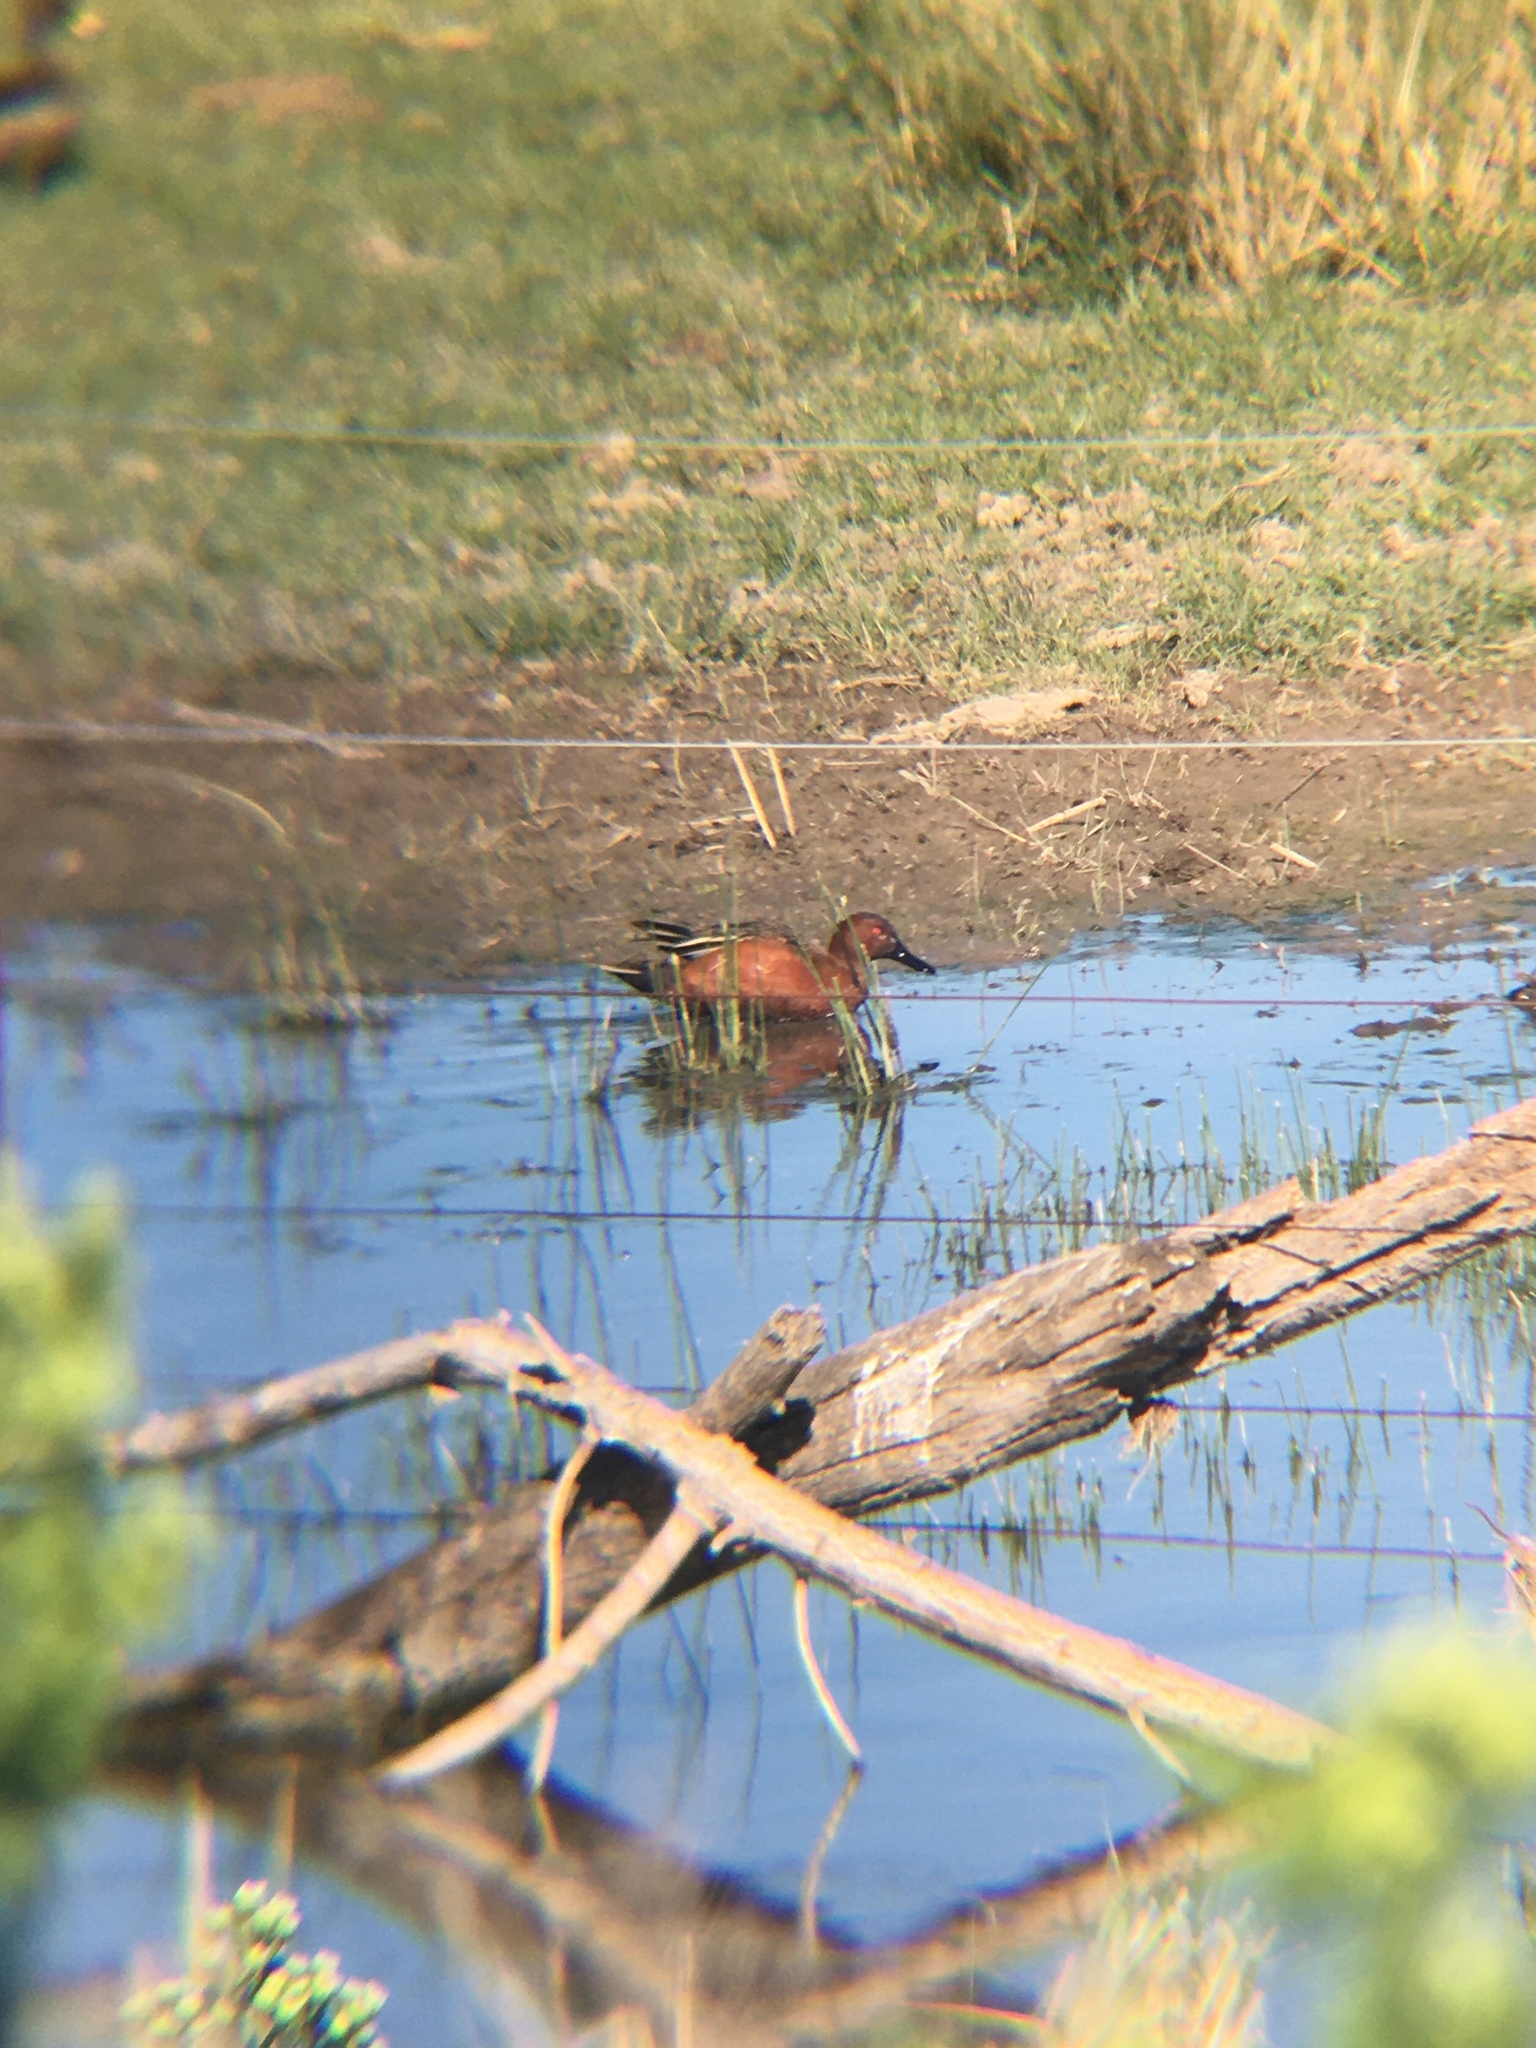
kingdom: Animalia
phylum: Chordata
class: Aves
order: Anseriformes
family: Anatidae
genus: Spatula
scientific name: Spatula cyanoptera
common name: Cinnamon teal
